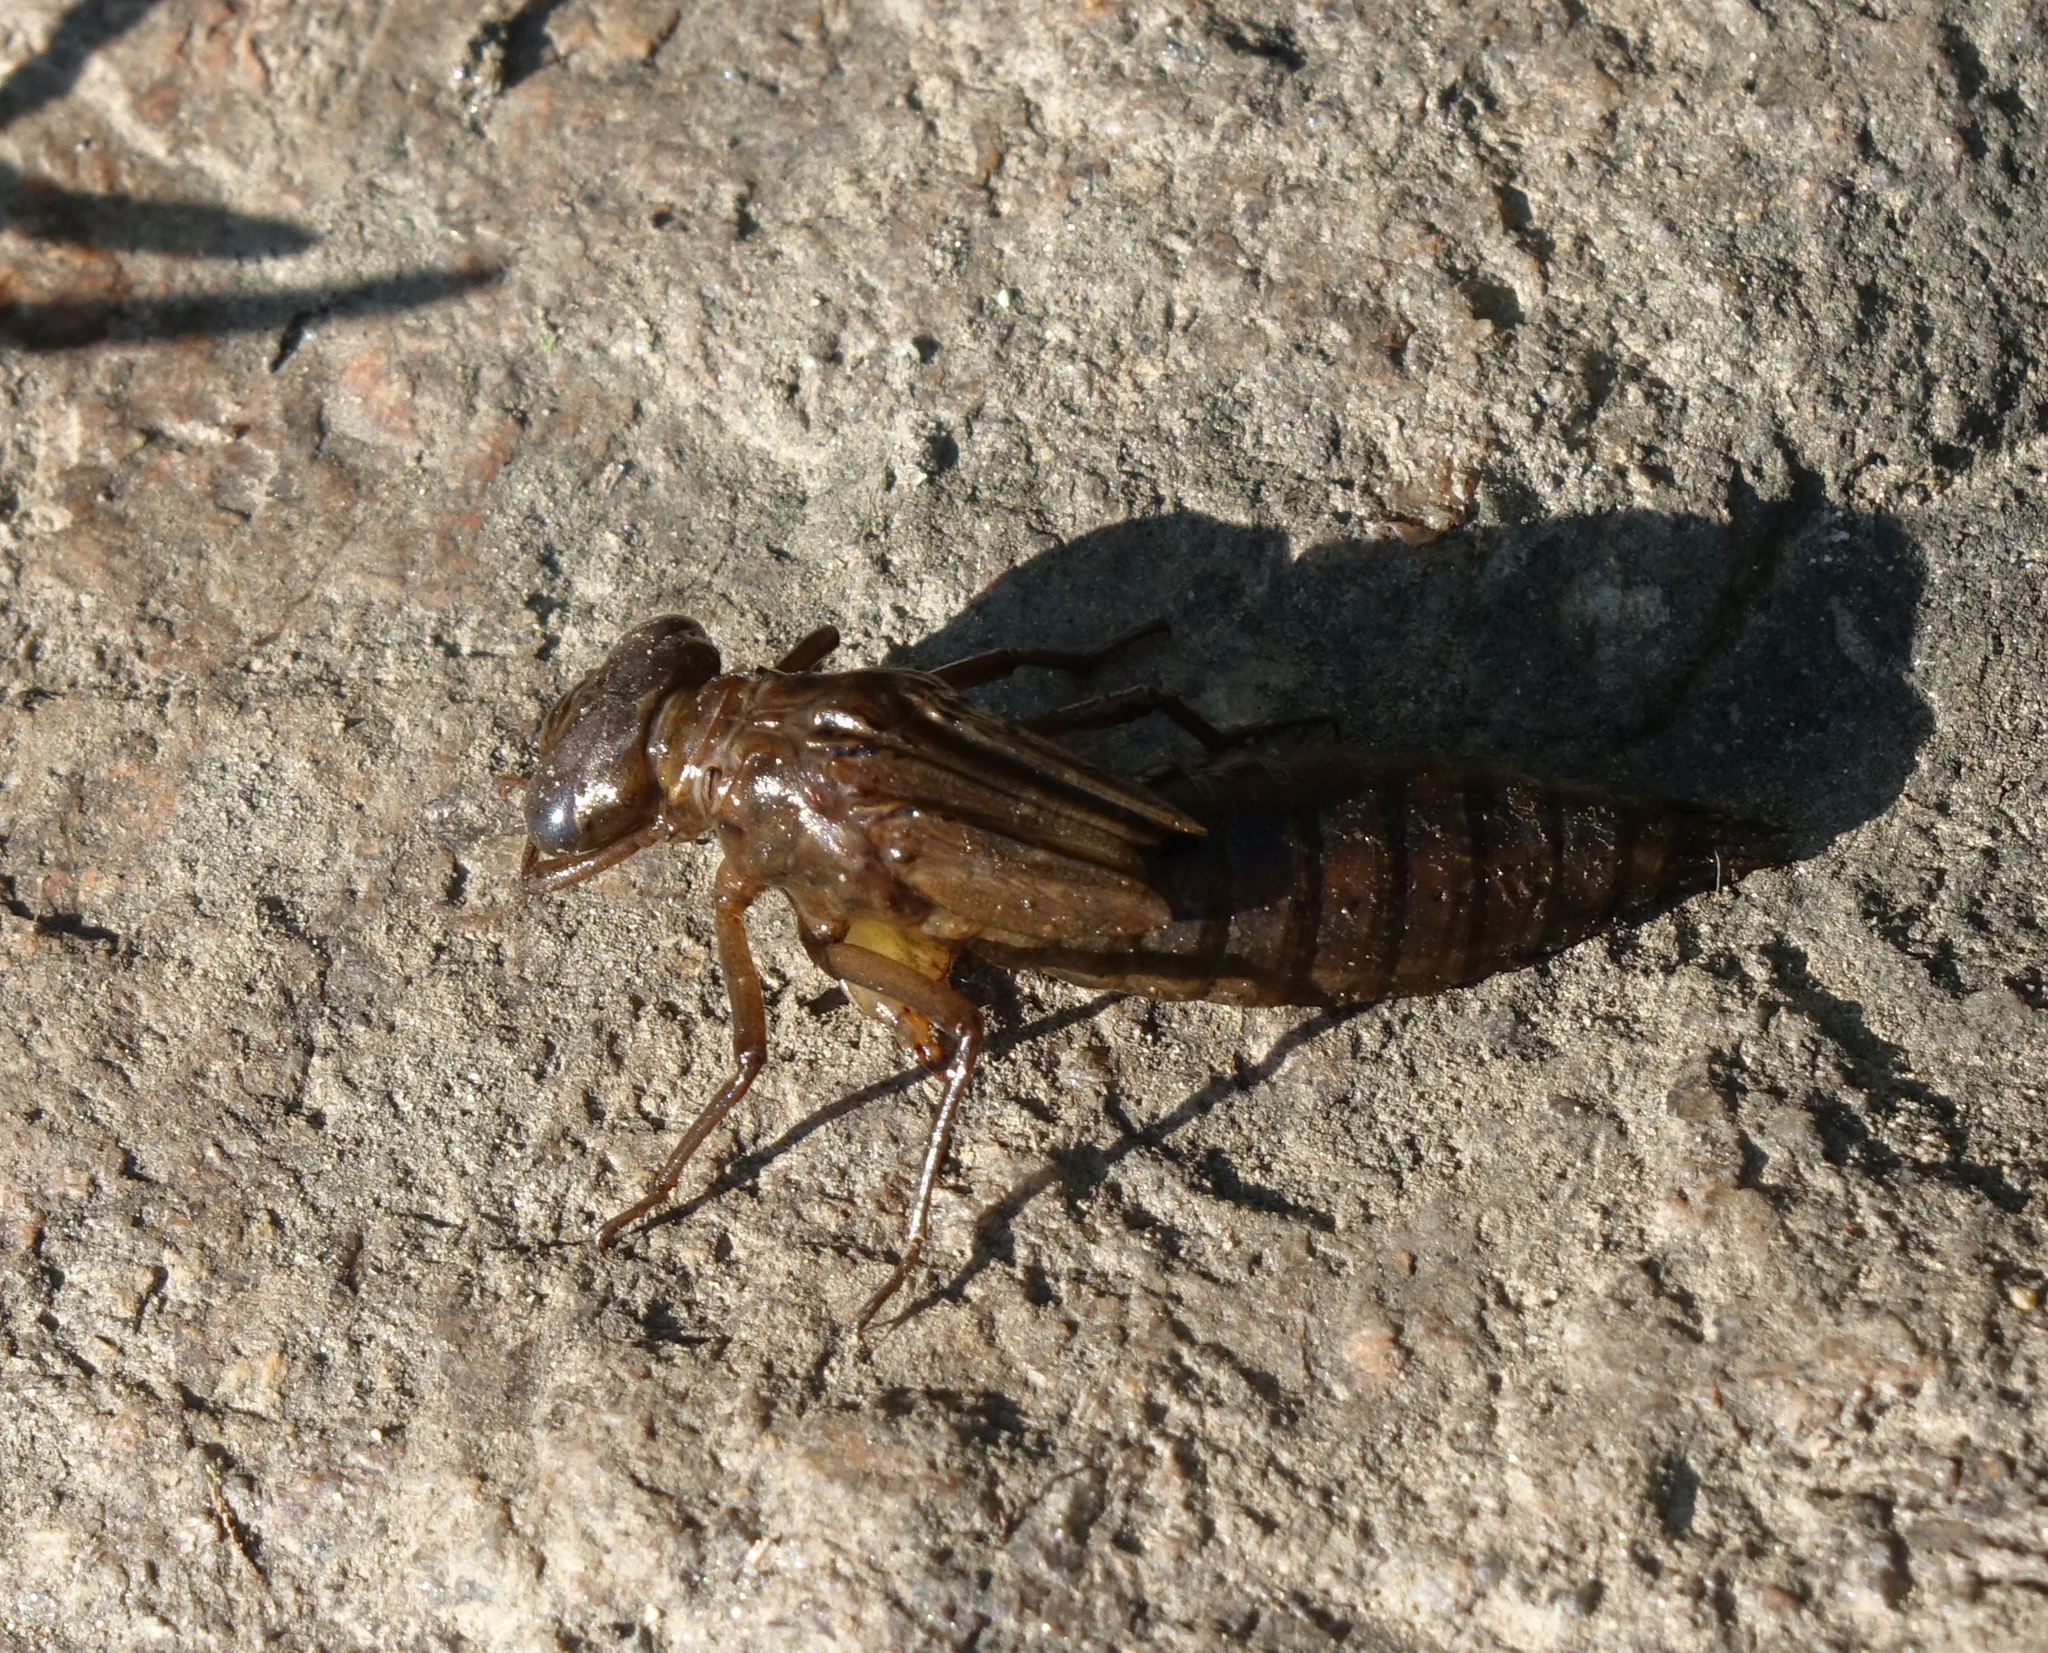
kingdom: Animalia
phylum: Arthropoda
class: Insecta
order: Odonata
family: Aeshnidae
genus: Aeshna
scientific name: Aeshna juncea
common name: Moorland hawker
